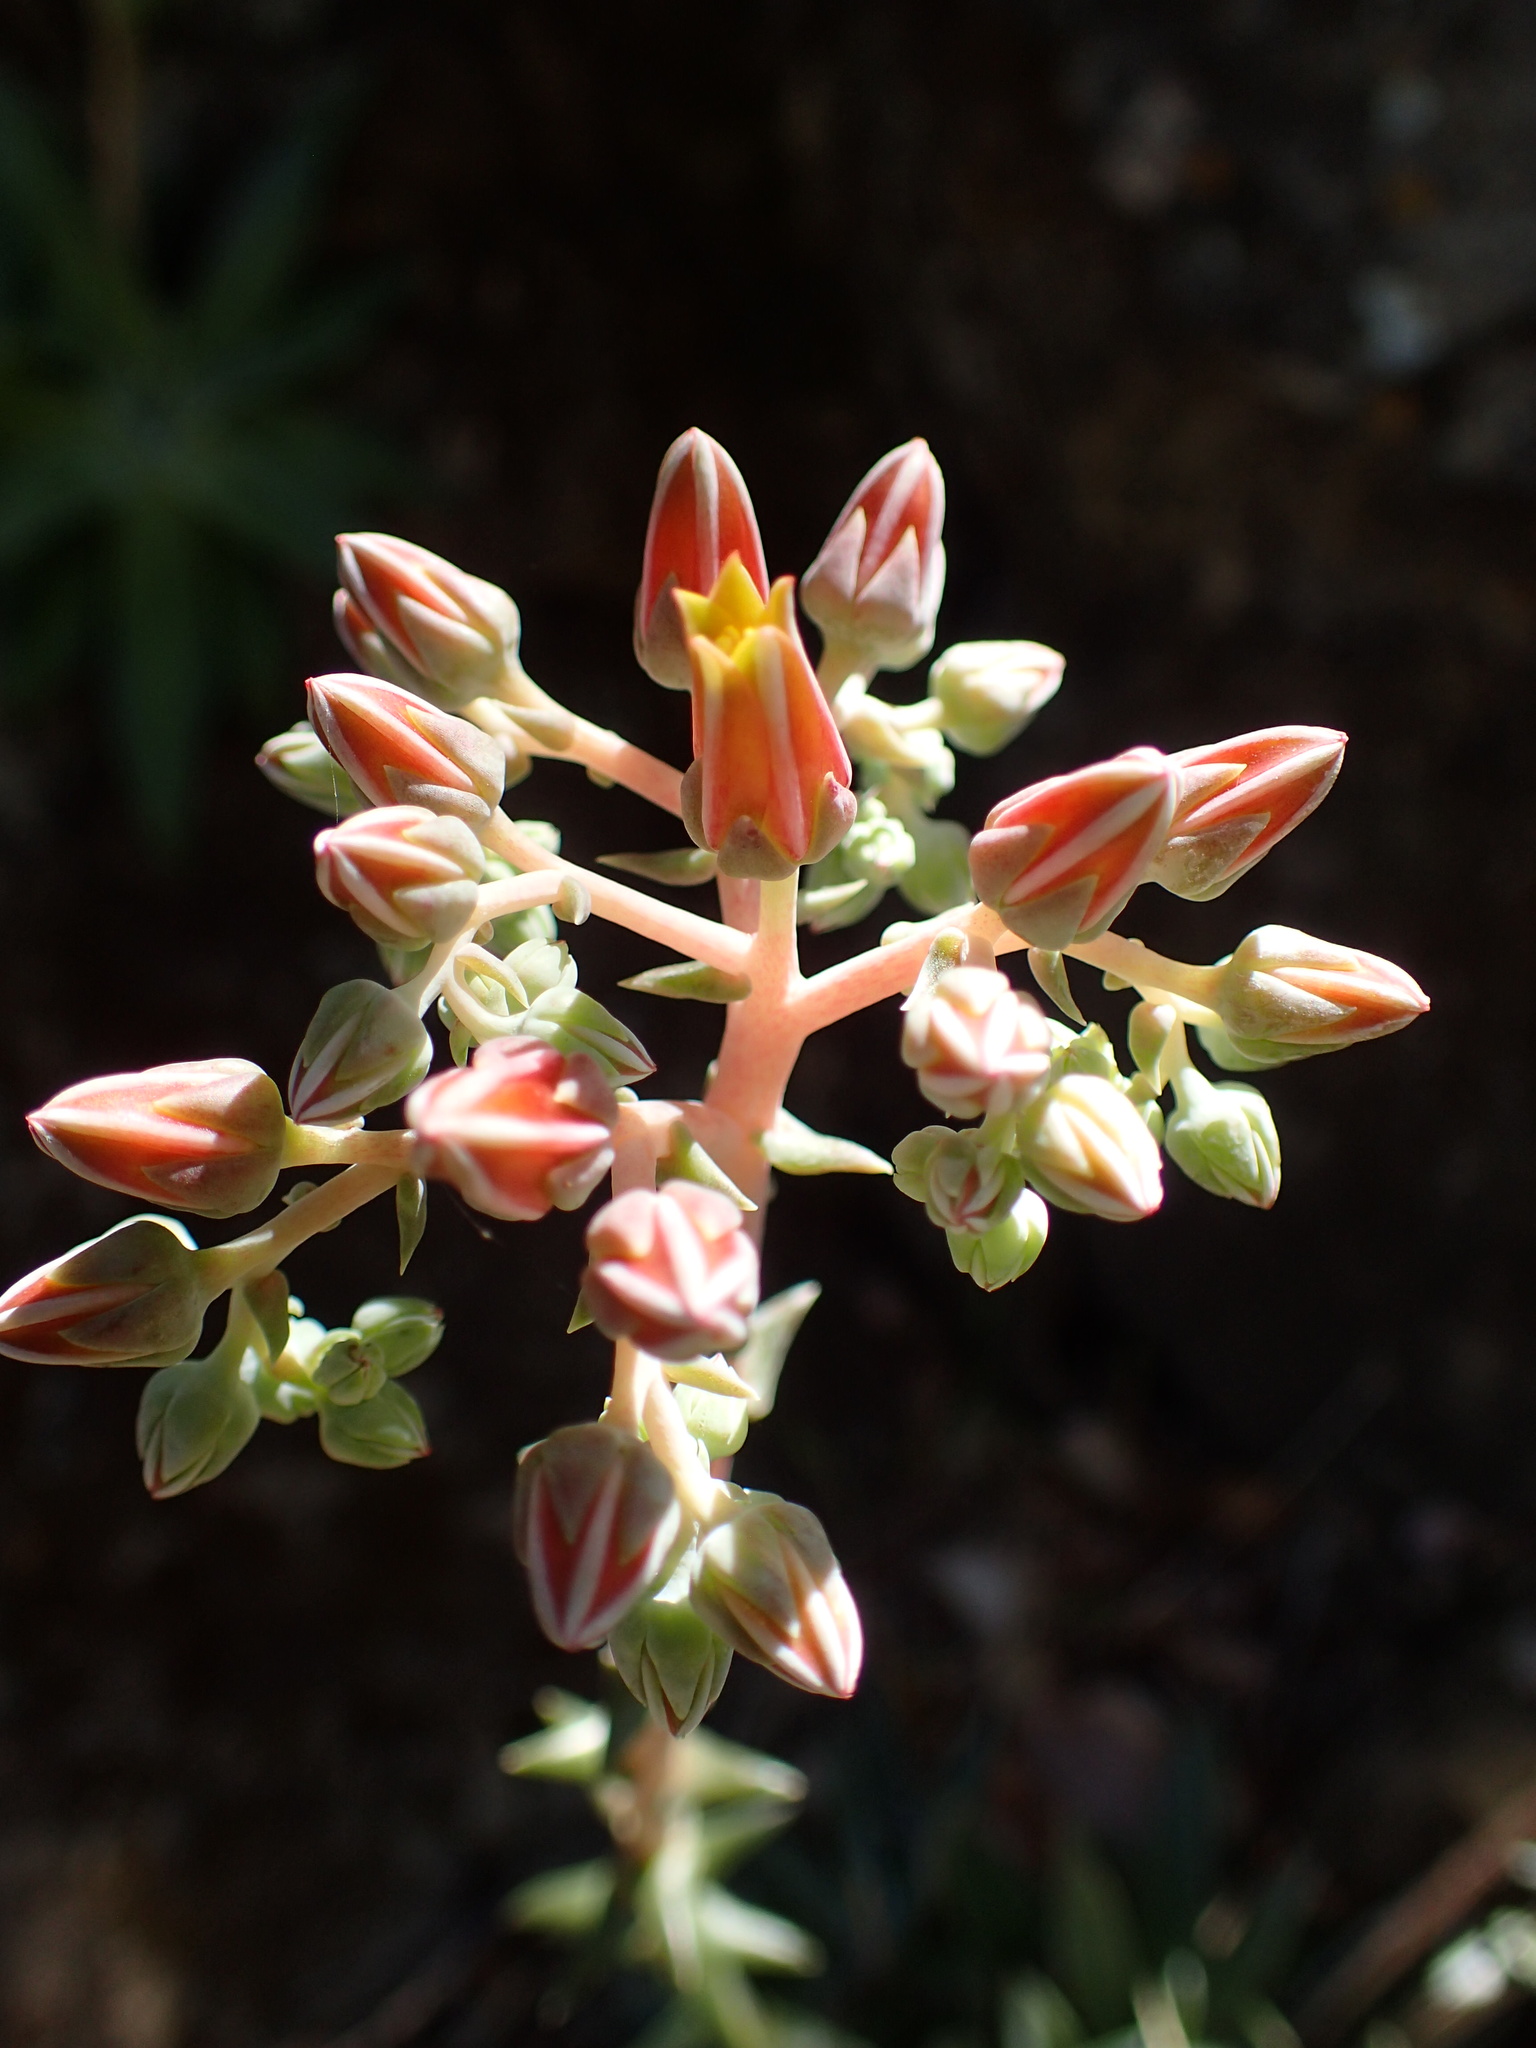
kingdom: Plantae
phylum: Tracheophyta
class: Magnoliopsida
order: Saxifragales
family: Crassulaceae
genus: Dudleya
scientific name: Dudleya lanceolata
